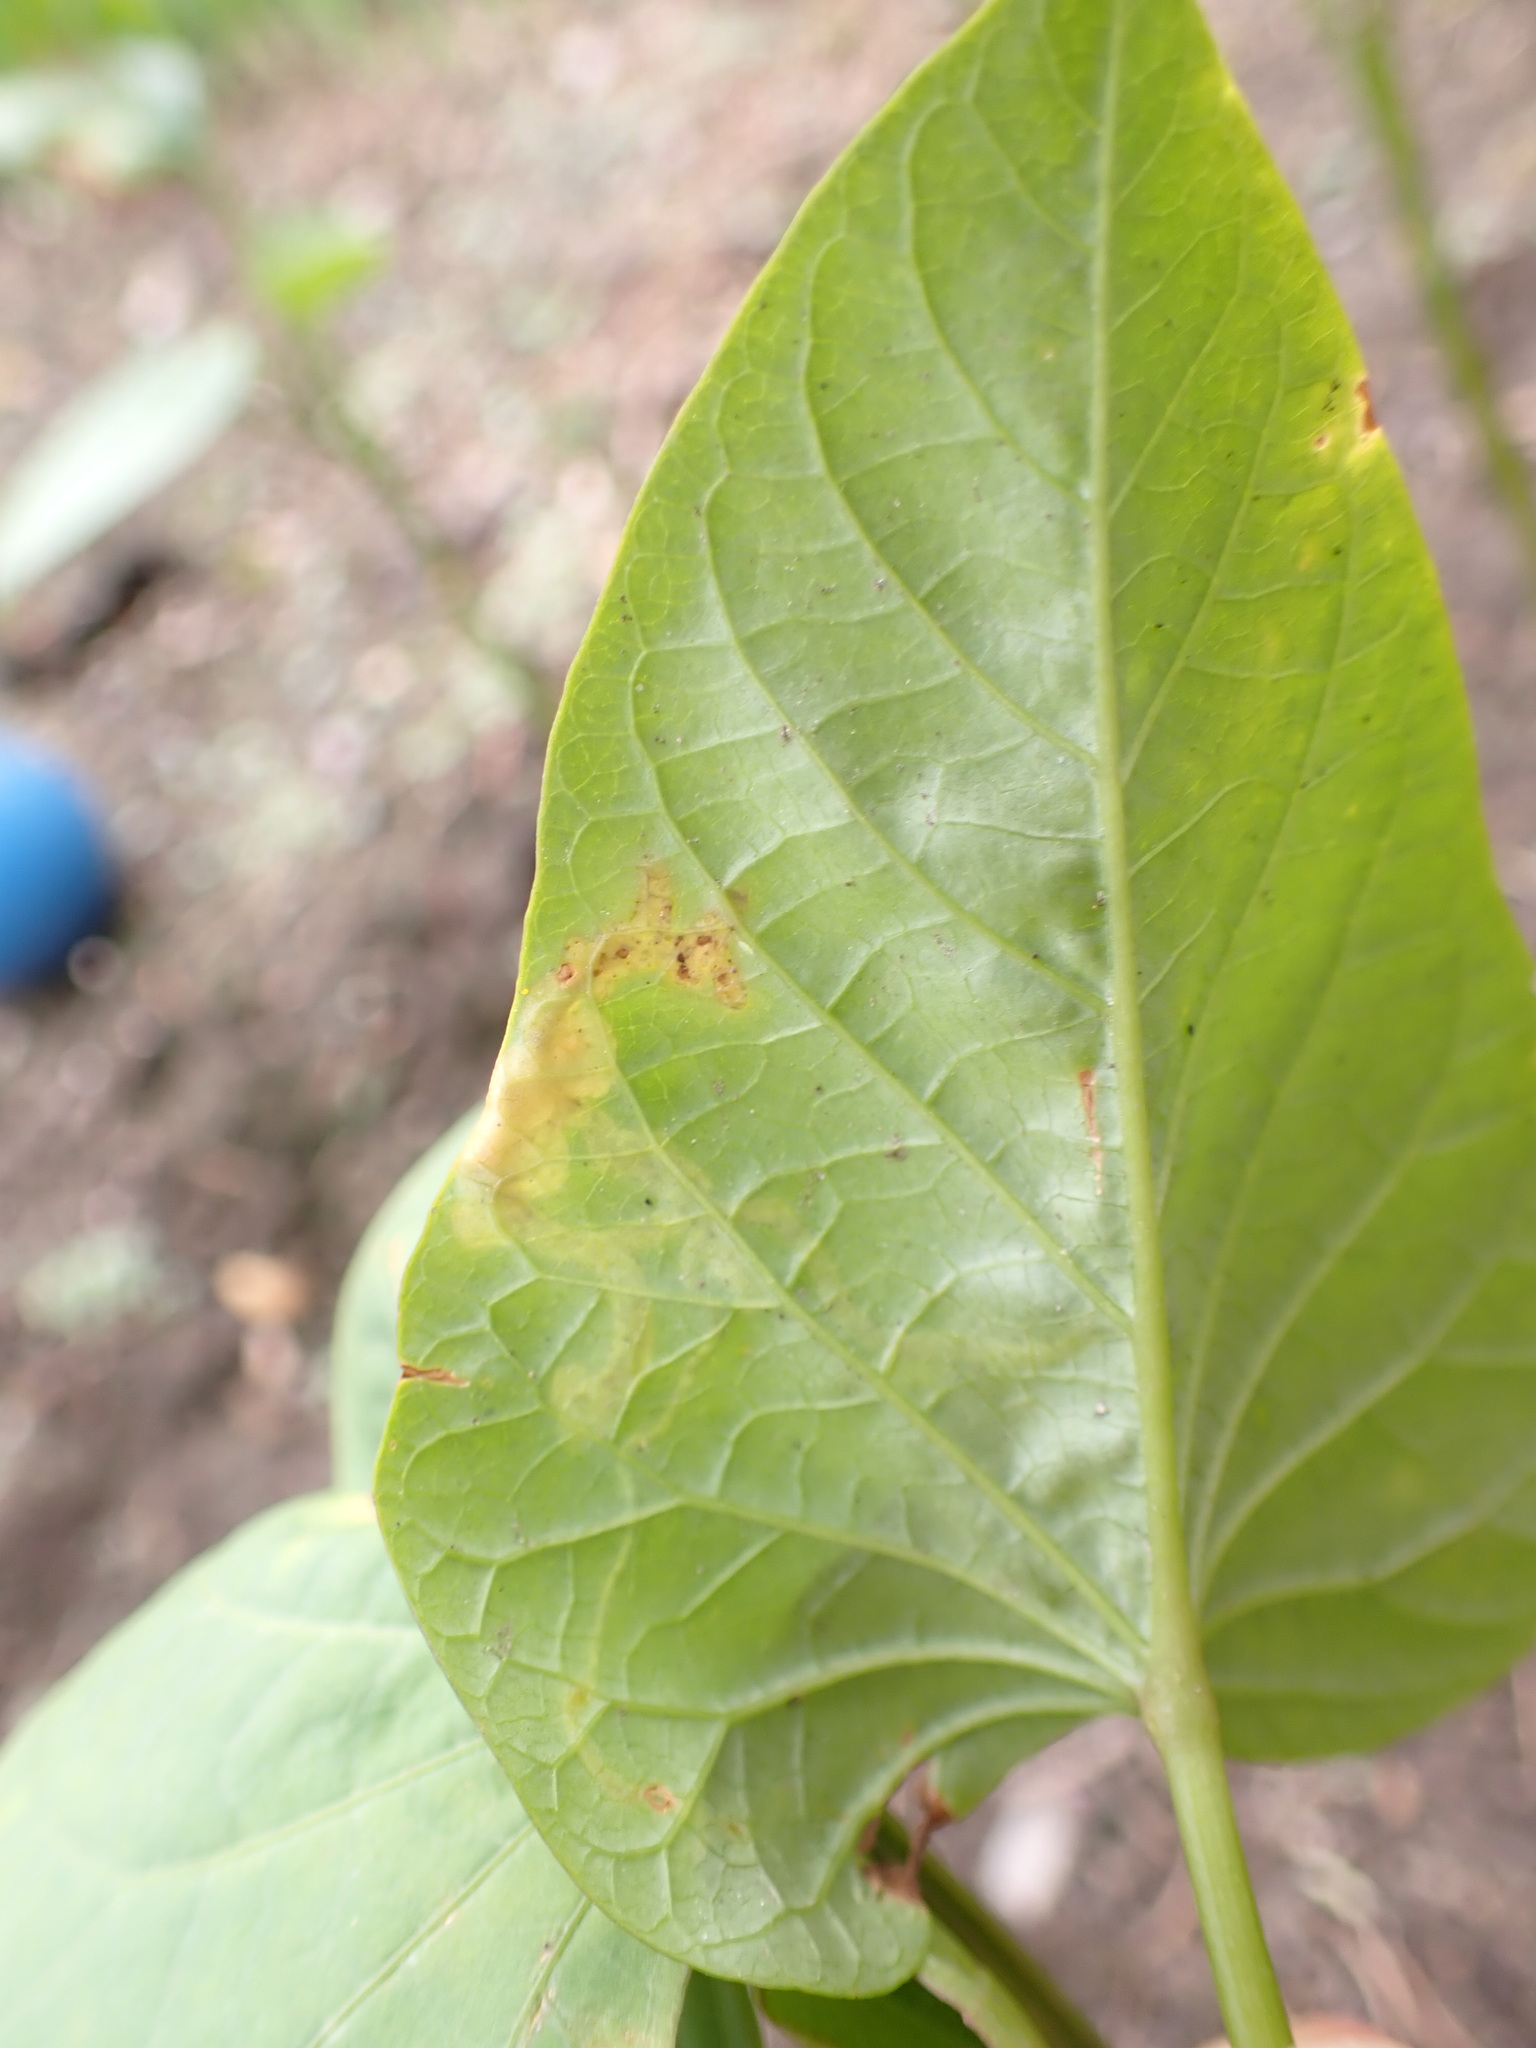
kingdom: Animalia
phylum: Arthropoda
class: Insecta
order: Diptera
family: Agromyzidae
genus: Calycomyza
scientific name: Calycomyza ipomaeae
